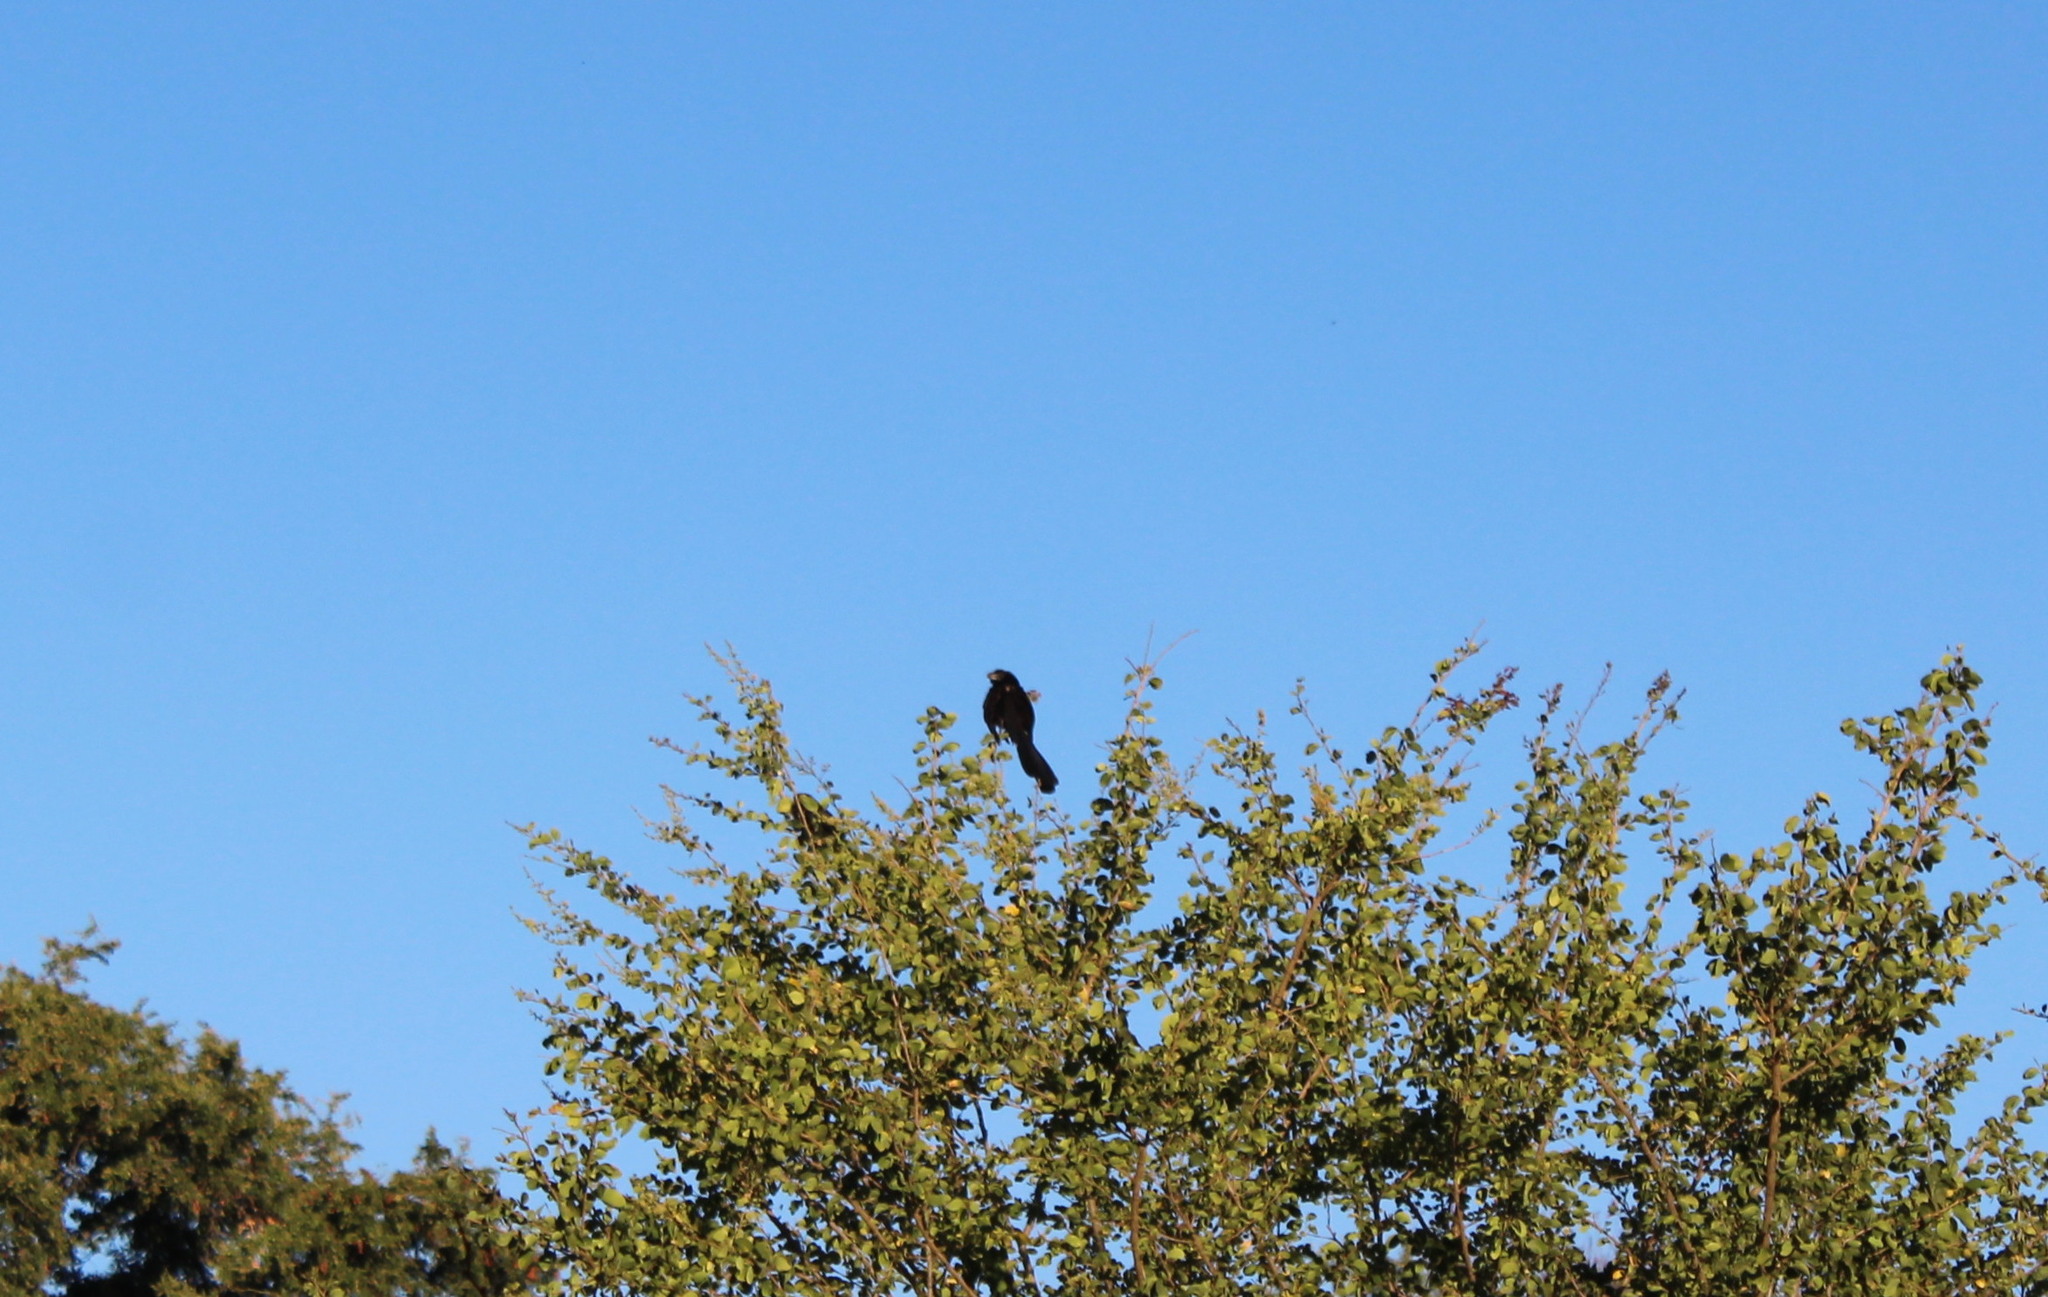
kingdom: Animalia
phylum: Chordata
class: Aves
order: Cuculiformes
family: Cuculidae
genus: Crotophaga
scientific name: Crotophaga sulcirostris
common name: Groove-billed ani
